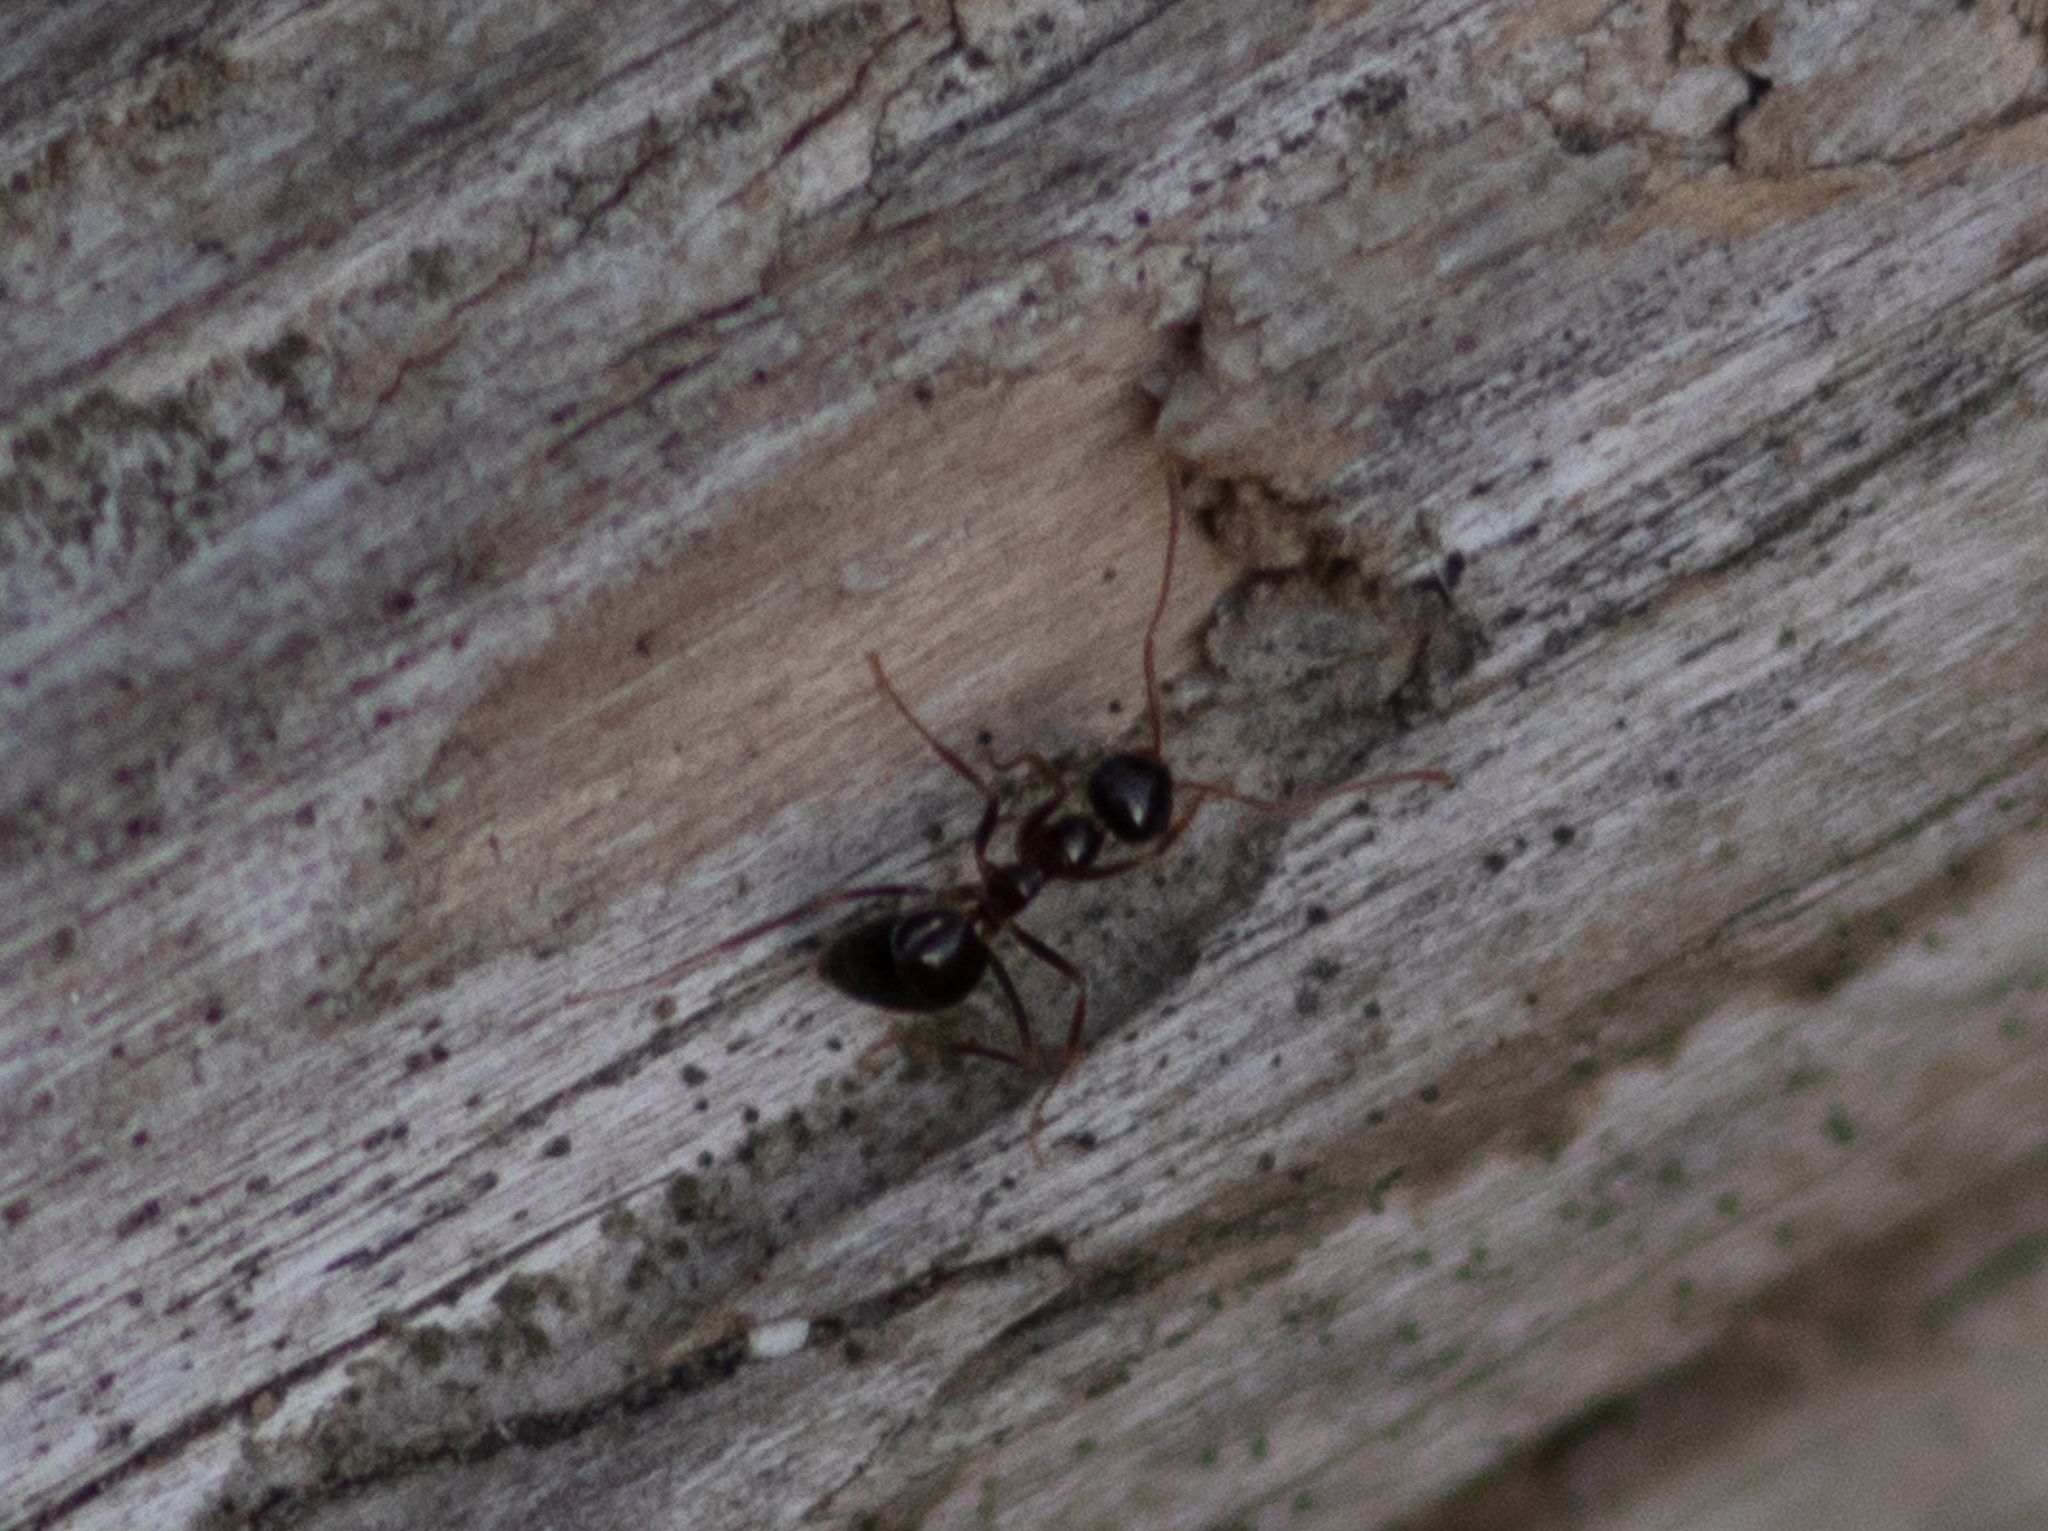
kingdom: Animalia
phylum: Arthropoda
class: Insecta
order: Hymenoptera
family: Formicidae
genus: Prenolepis
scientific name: Prenolepis imparis
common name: Small honey ant
